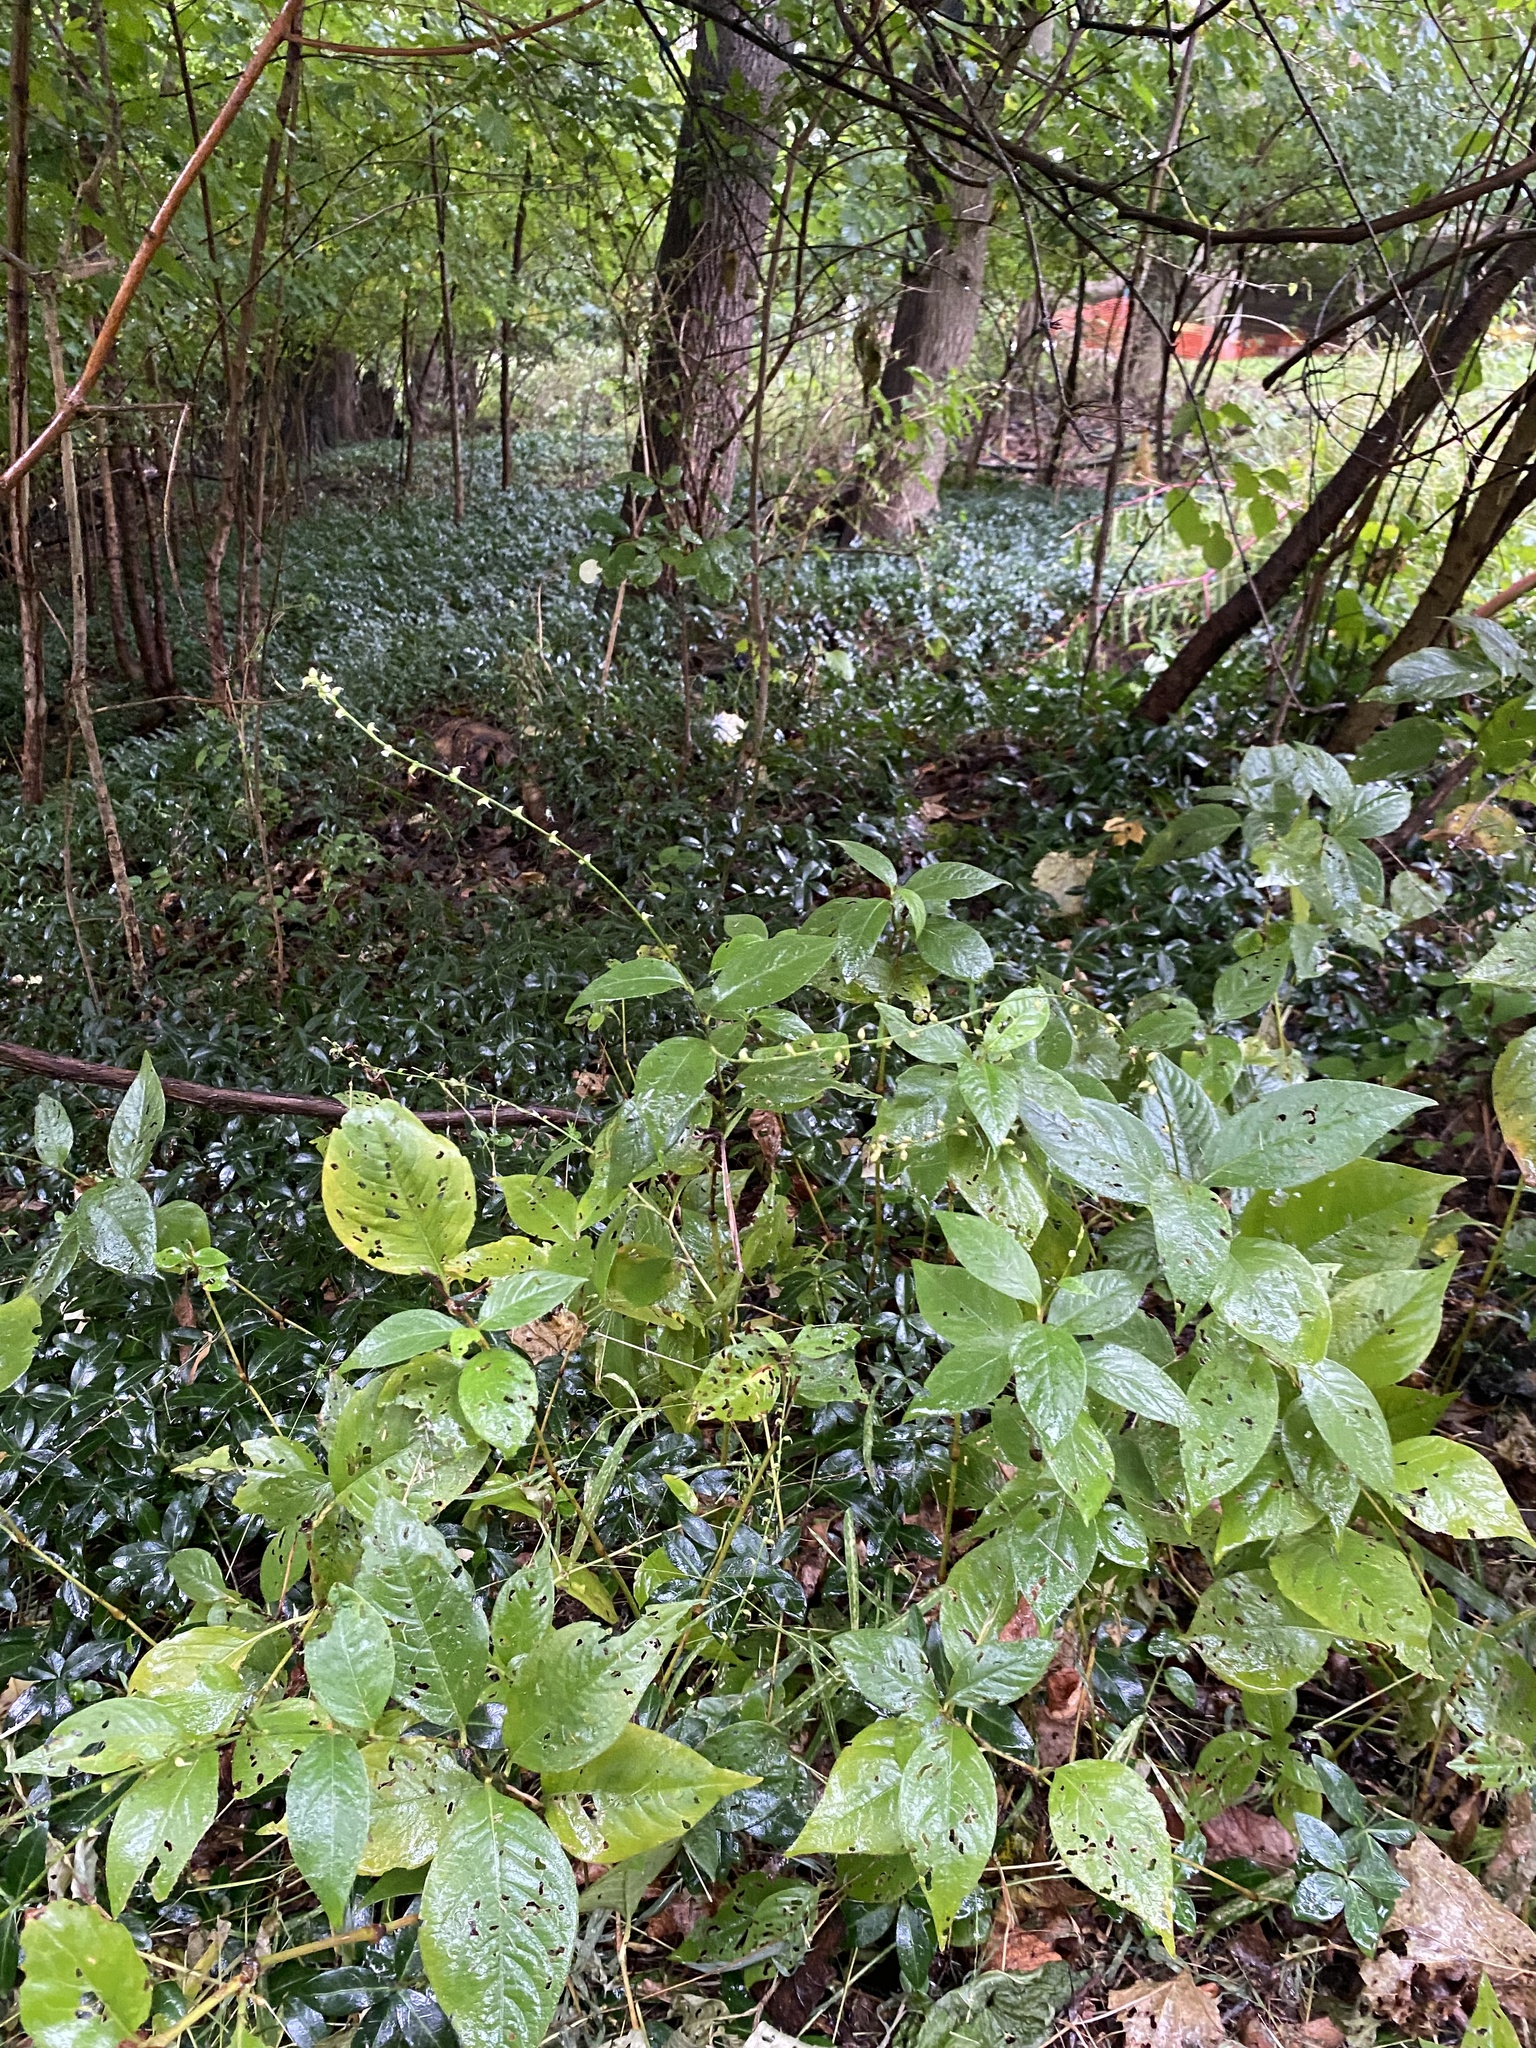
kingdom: Plantae
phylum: Tracheophyta
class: Magnoliopsida
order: Caryophyllales
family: Polygonaceae
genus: Persicaria
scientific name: Persicaria virginiana
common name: Jumpseed
